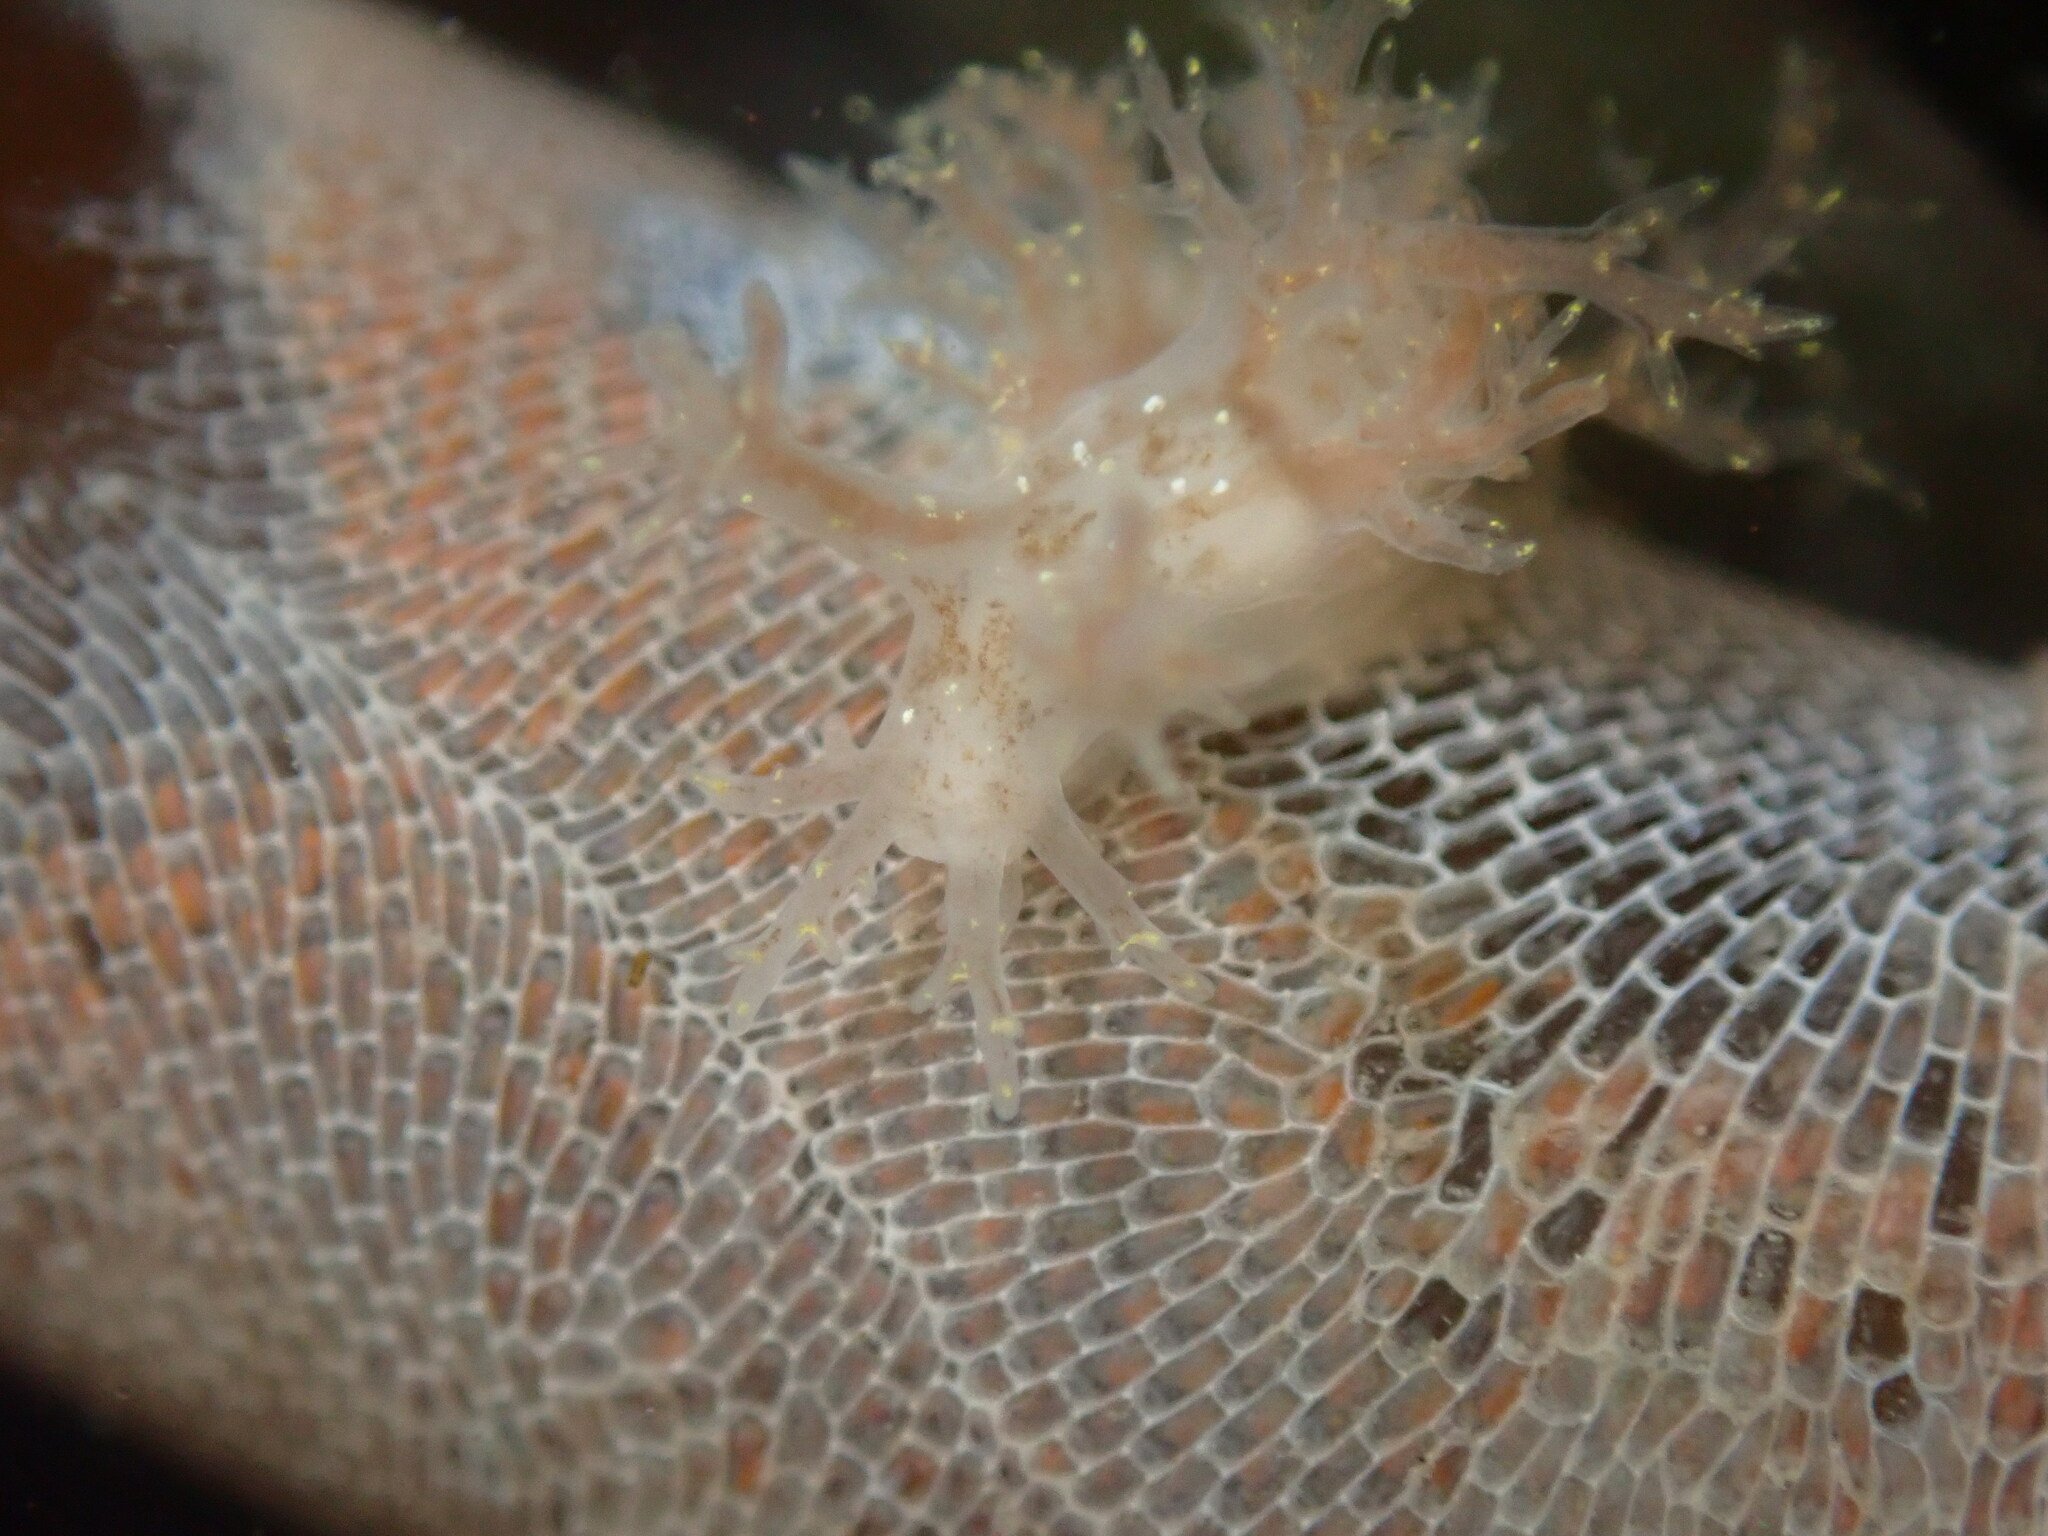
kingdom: Animalia
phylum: Mollusca
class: Gastropoda
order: Nudibranchia
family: Dendronotidae
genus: Dendronotus
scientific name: Dendronotus venustus
